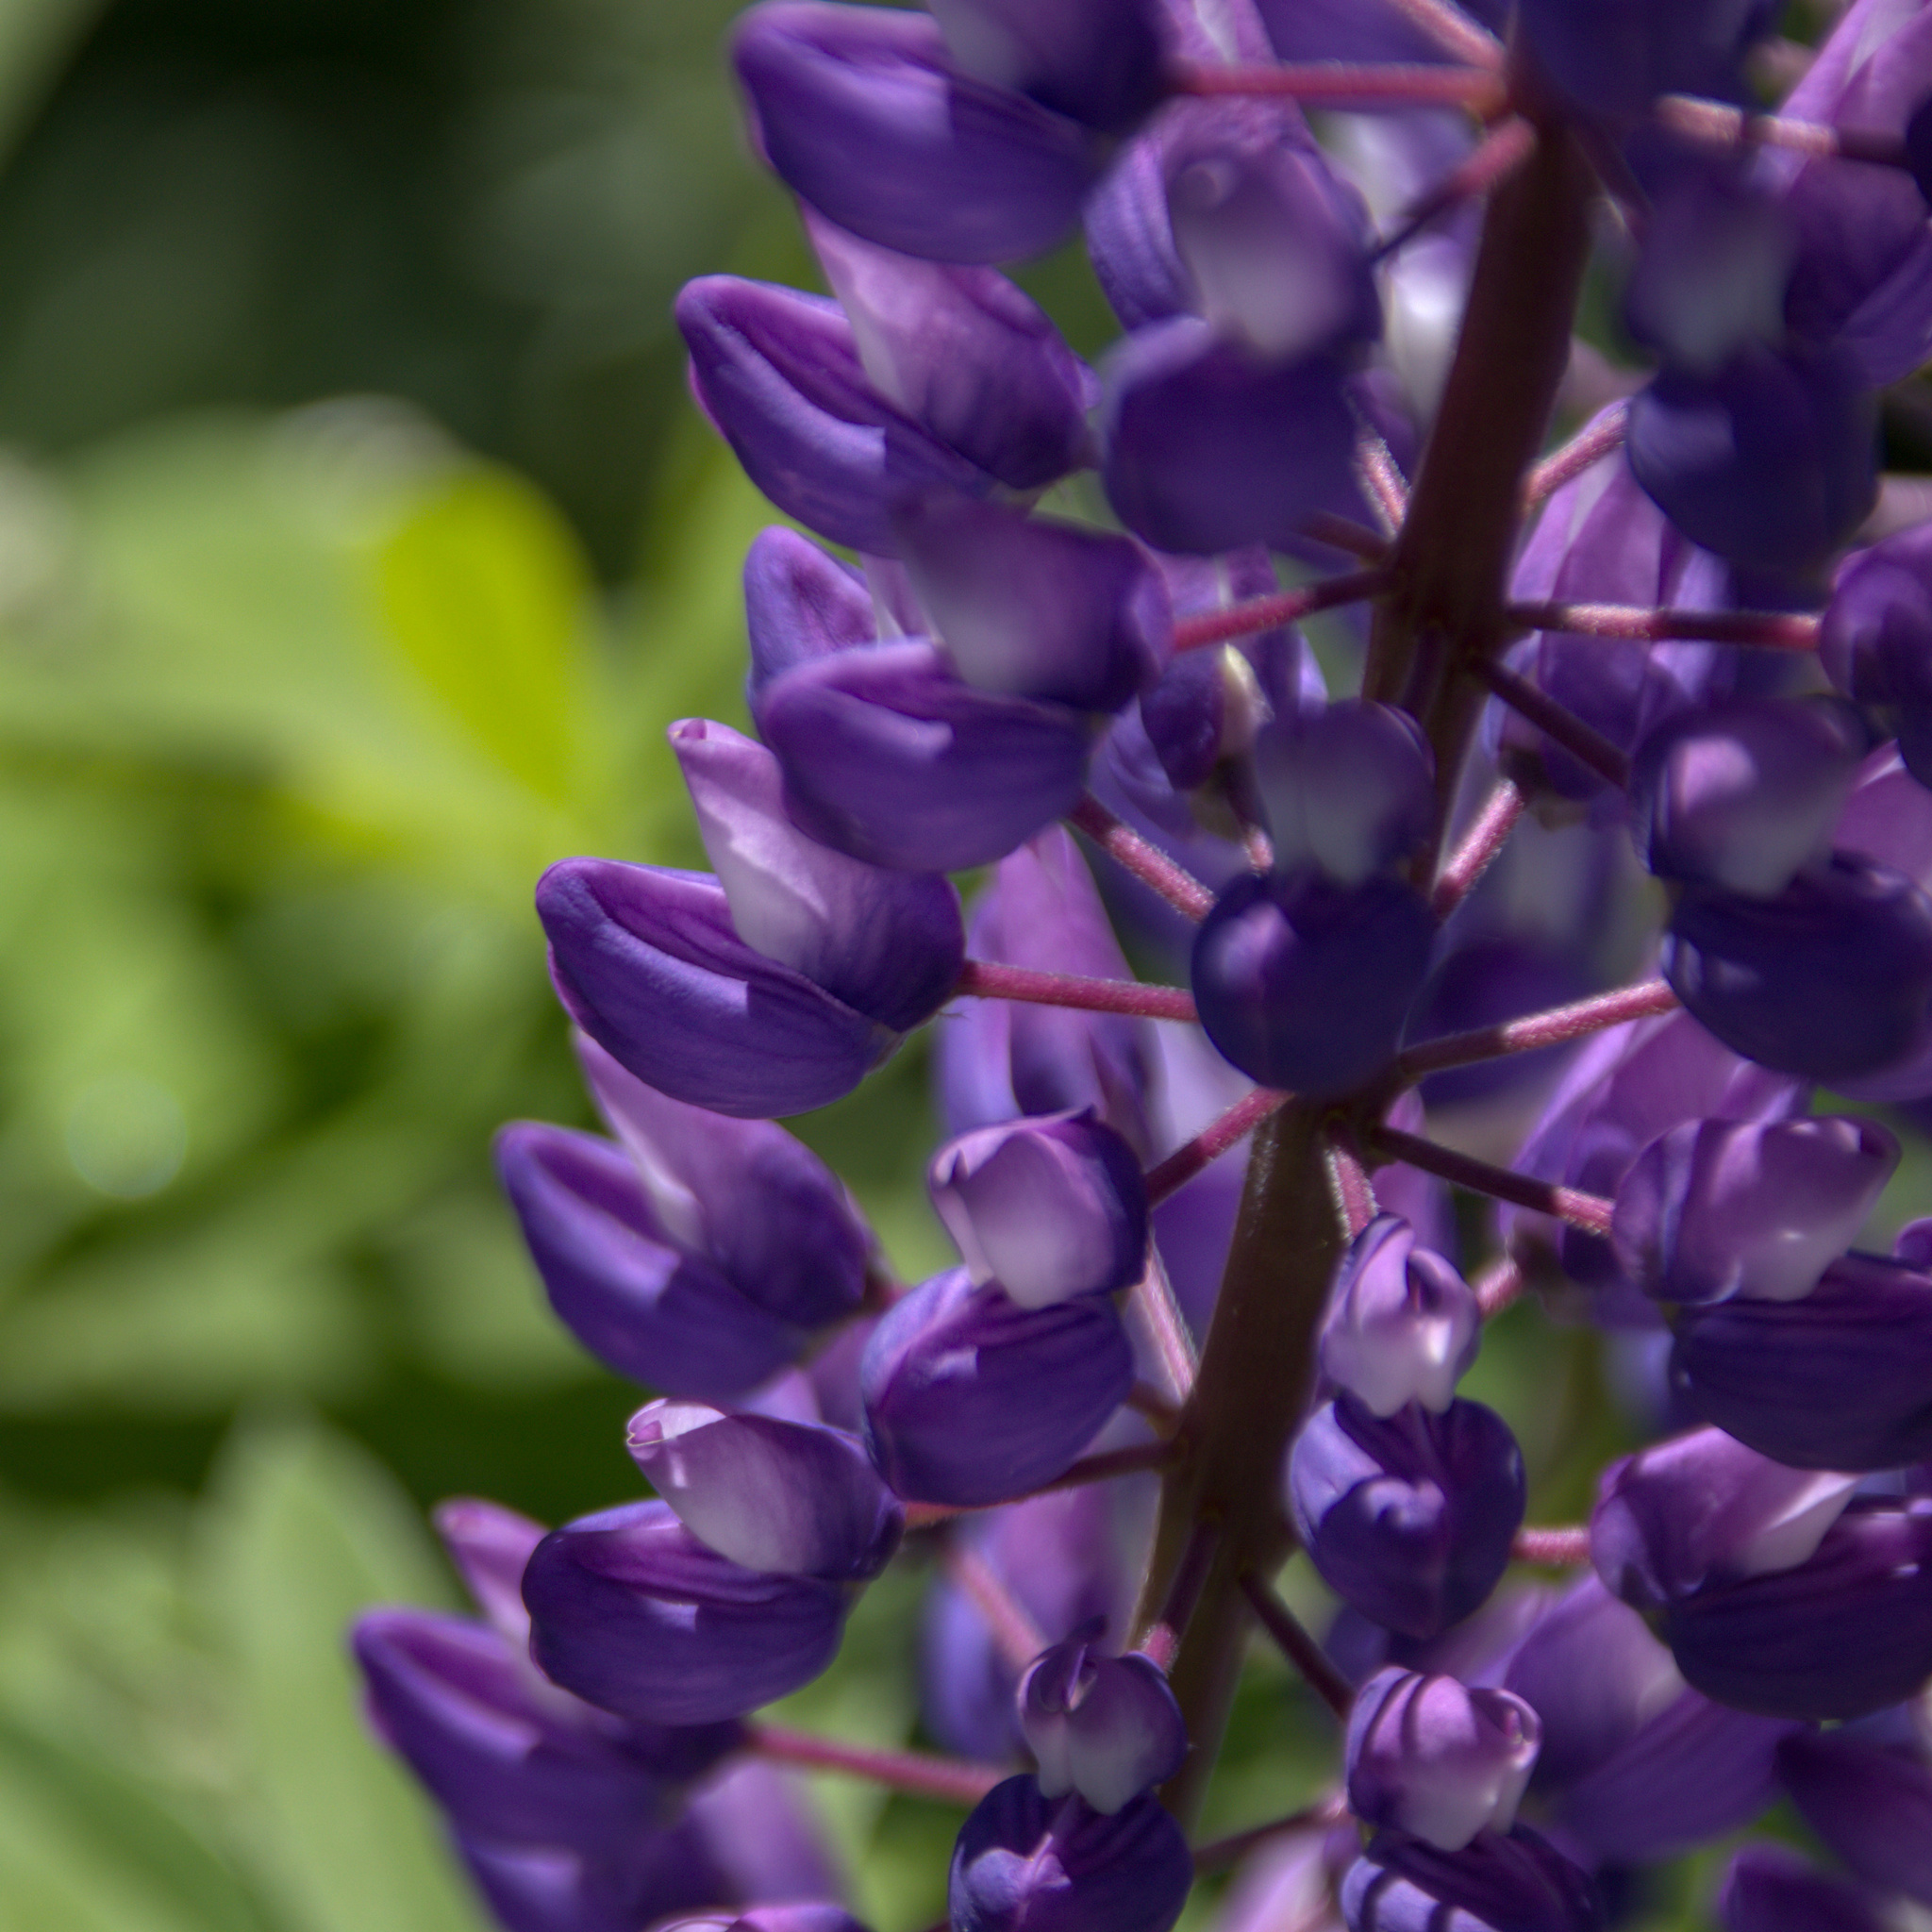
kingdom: Plantae
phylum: Tracheophyta
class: Magnoliopsida
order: Fabales
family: Fabaceae
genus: Lupinus
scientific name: Lupinus polyphyllus
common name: Garden lupin
